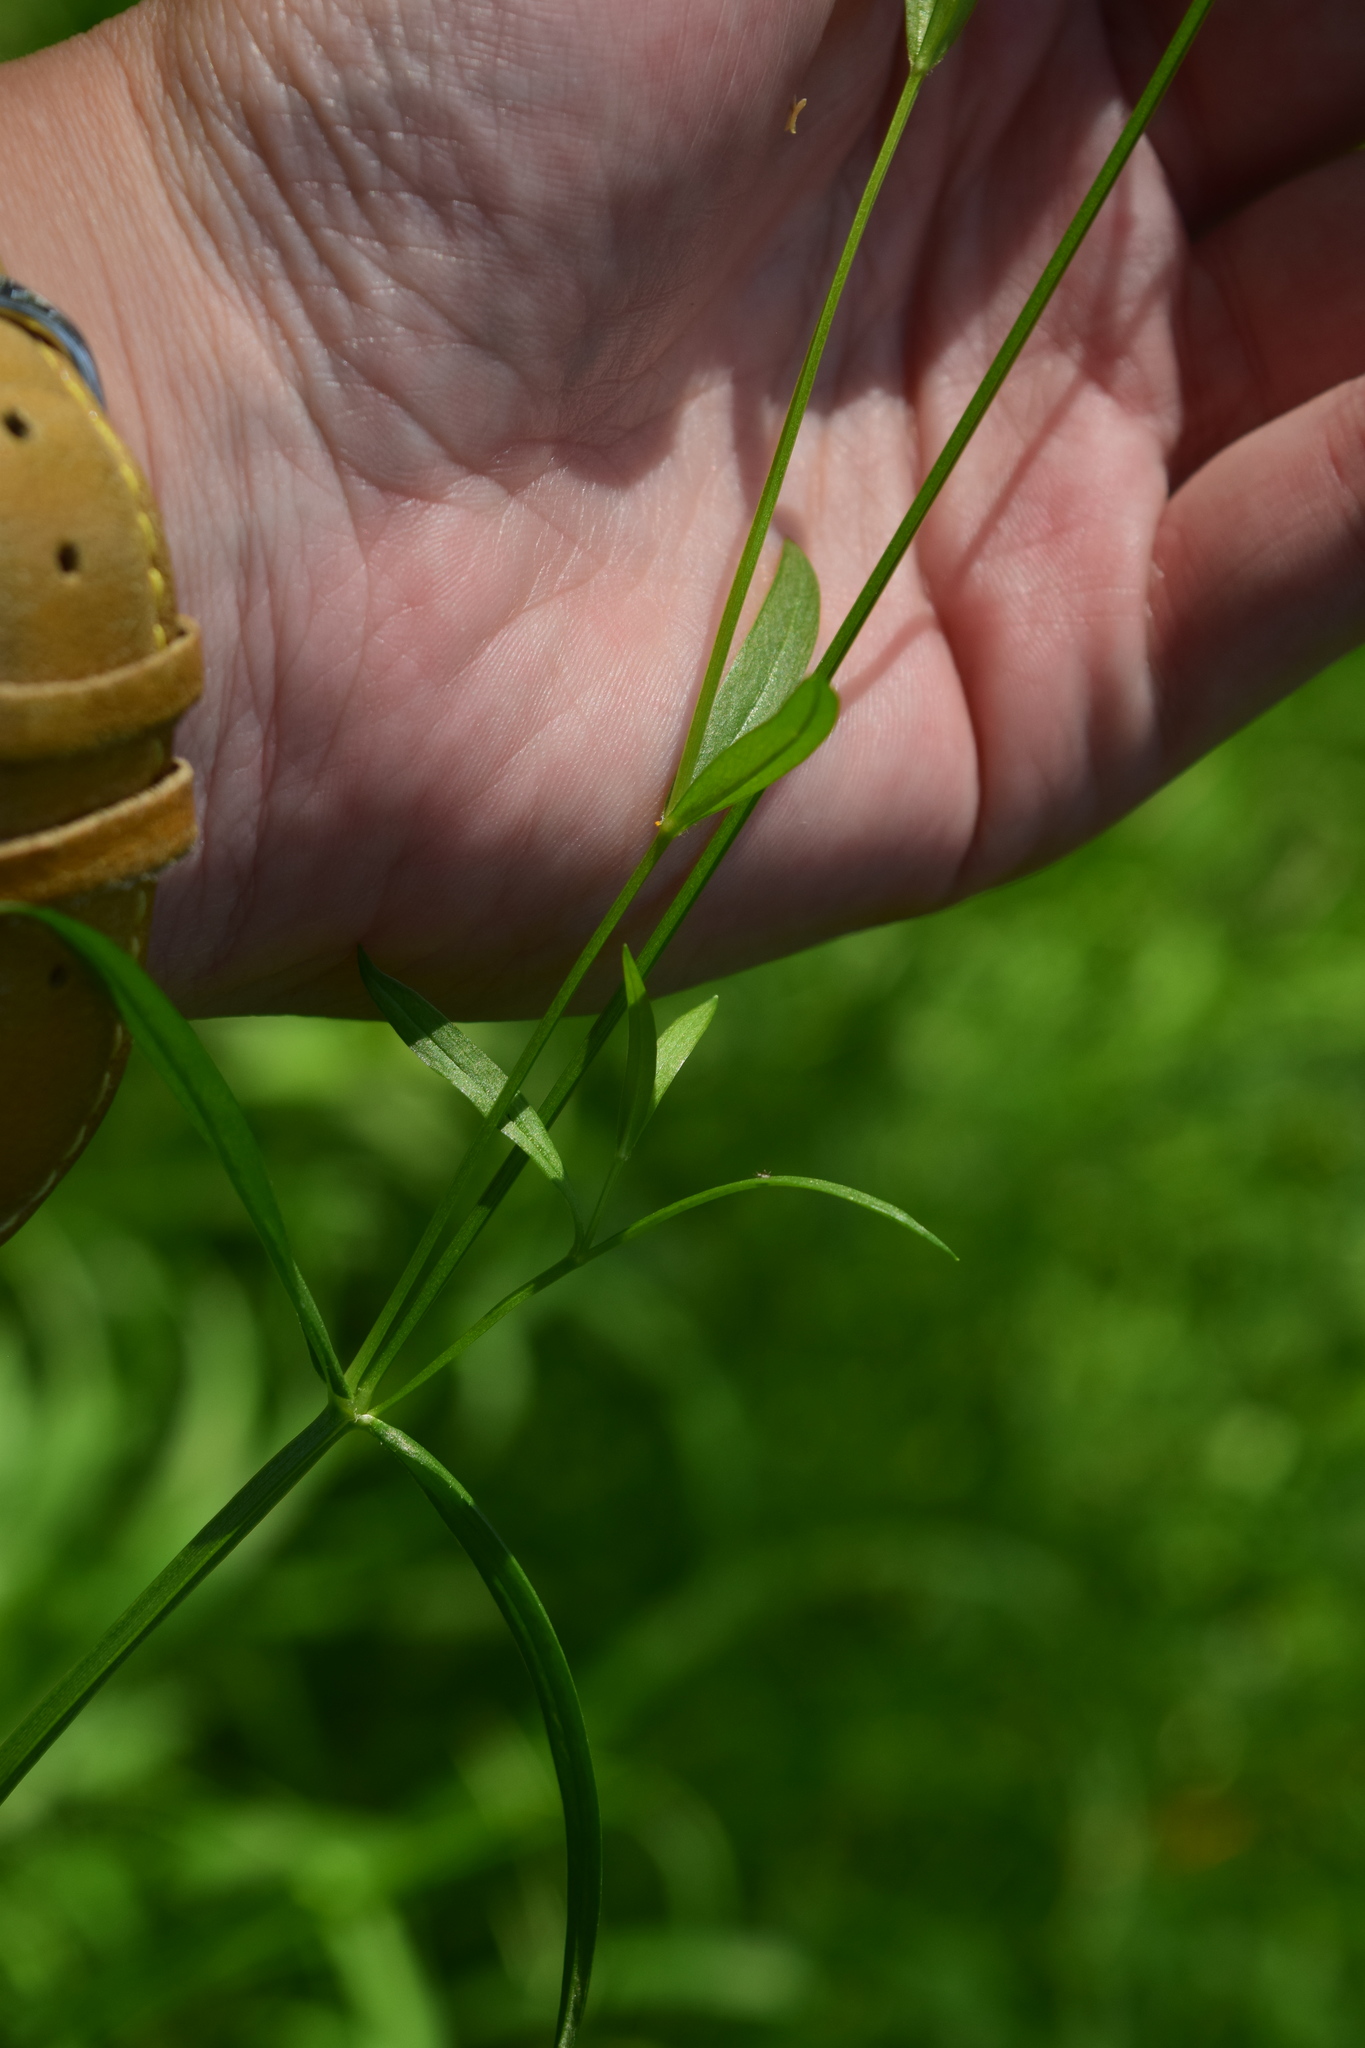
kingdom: Plantae
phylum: Tracheophyta
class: Magnoliopsida
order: Caryophyllales
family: Caryophyllaceae
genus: Stellaria
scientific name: Stellaria longifolia
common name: Long-leaved chickweed
